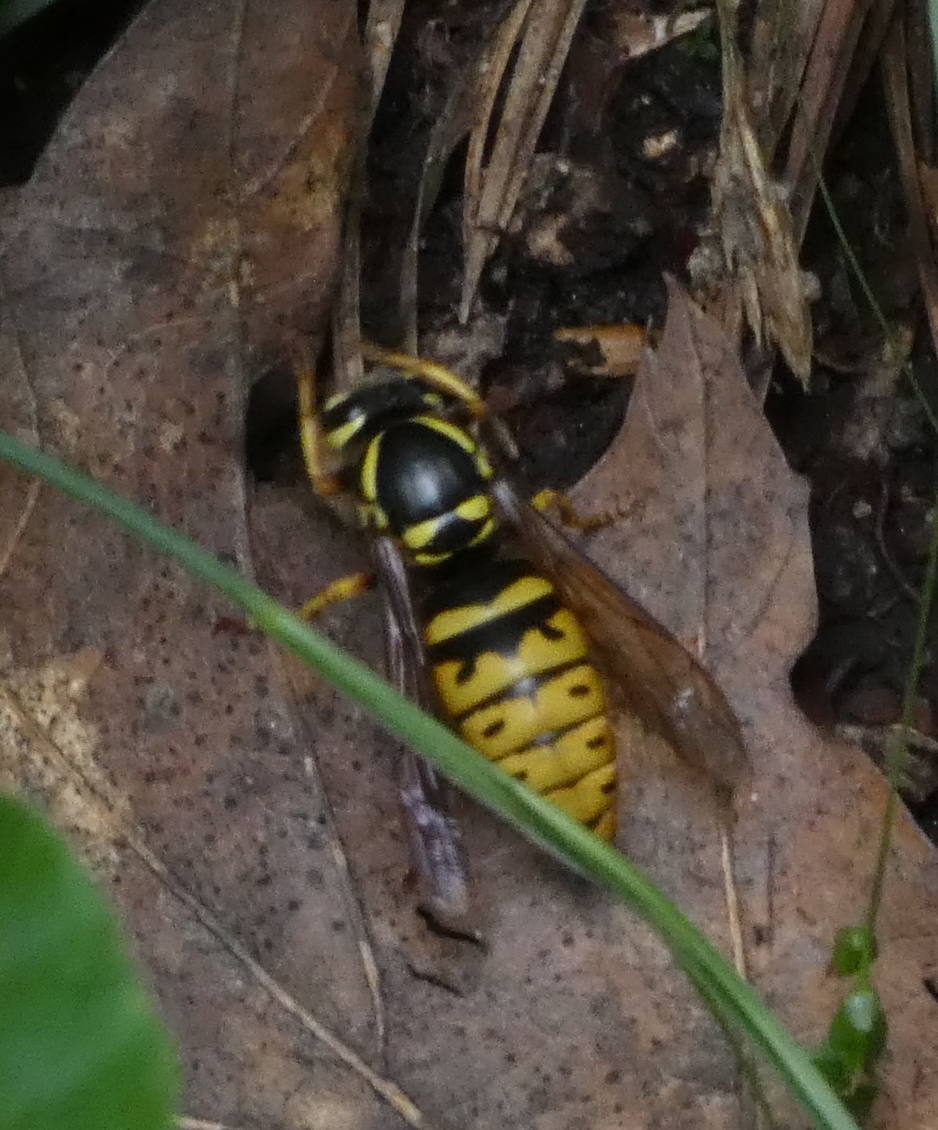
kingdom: Animalia
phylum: Arthropoda
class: Insecta
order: Hymenoptera
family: Vespidae
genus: Vespula
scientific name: Vespula flavopilosa
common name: Downy yellowjacket
